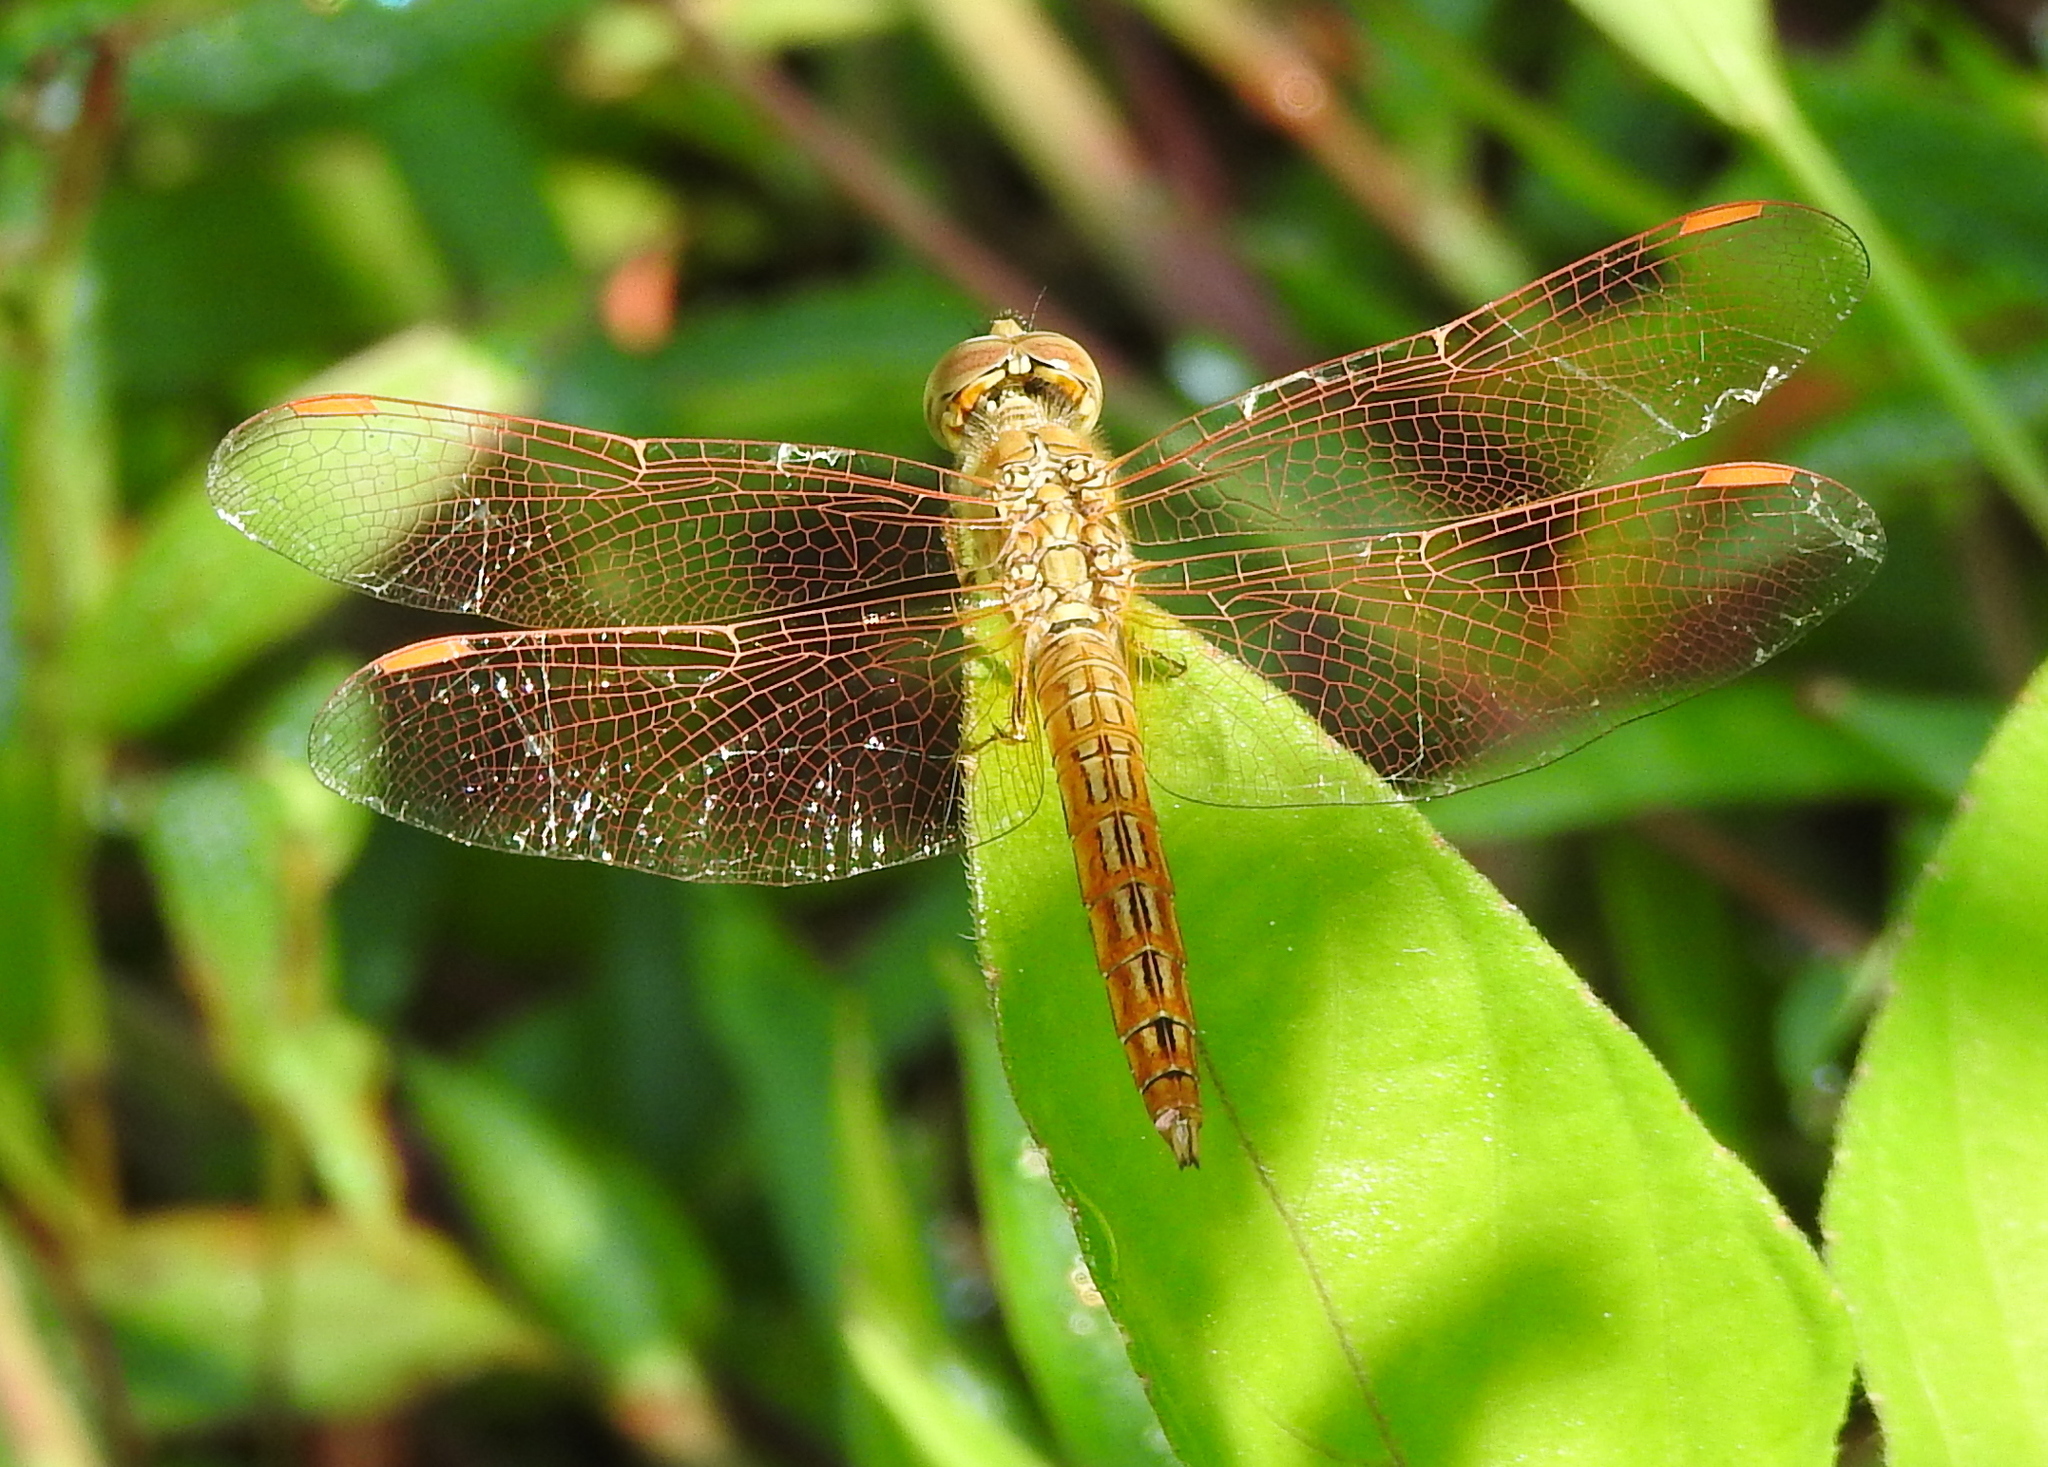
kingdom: Animalia
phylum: Arthropoda
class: Insecta
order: Odonata
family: Libellulidae
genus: Brachythemis
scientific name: Brachythemis contaminata
